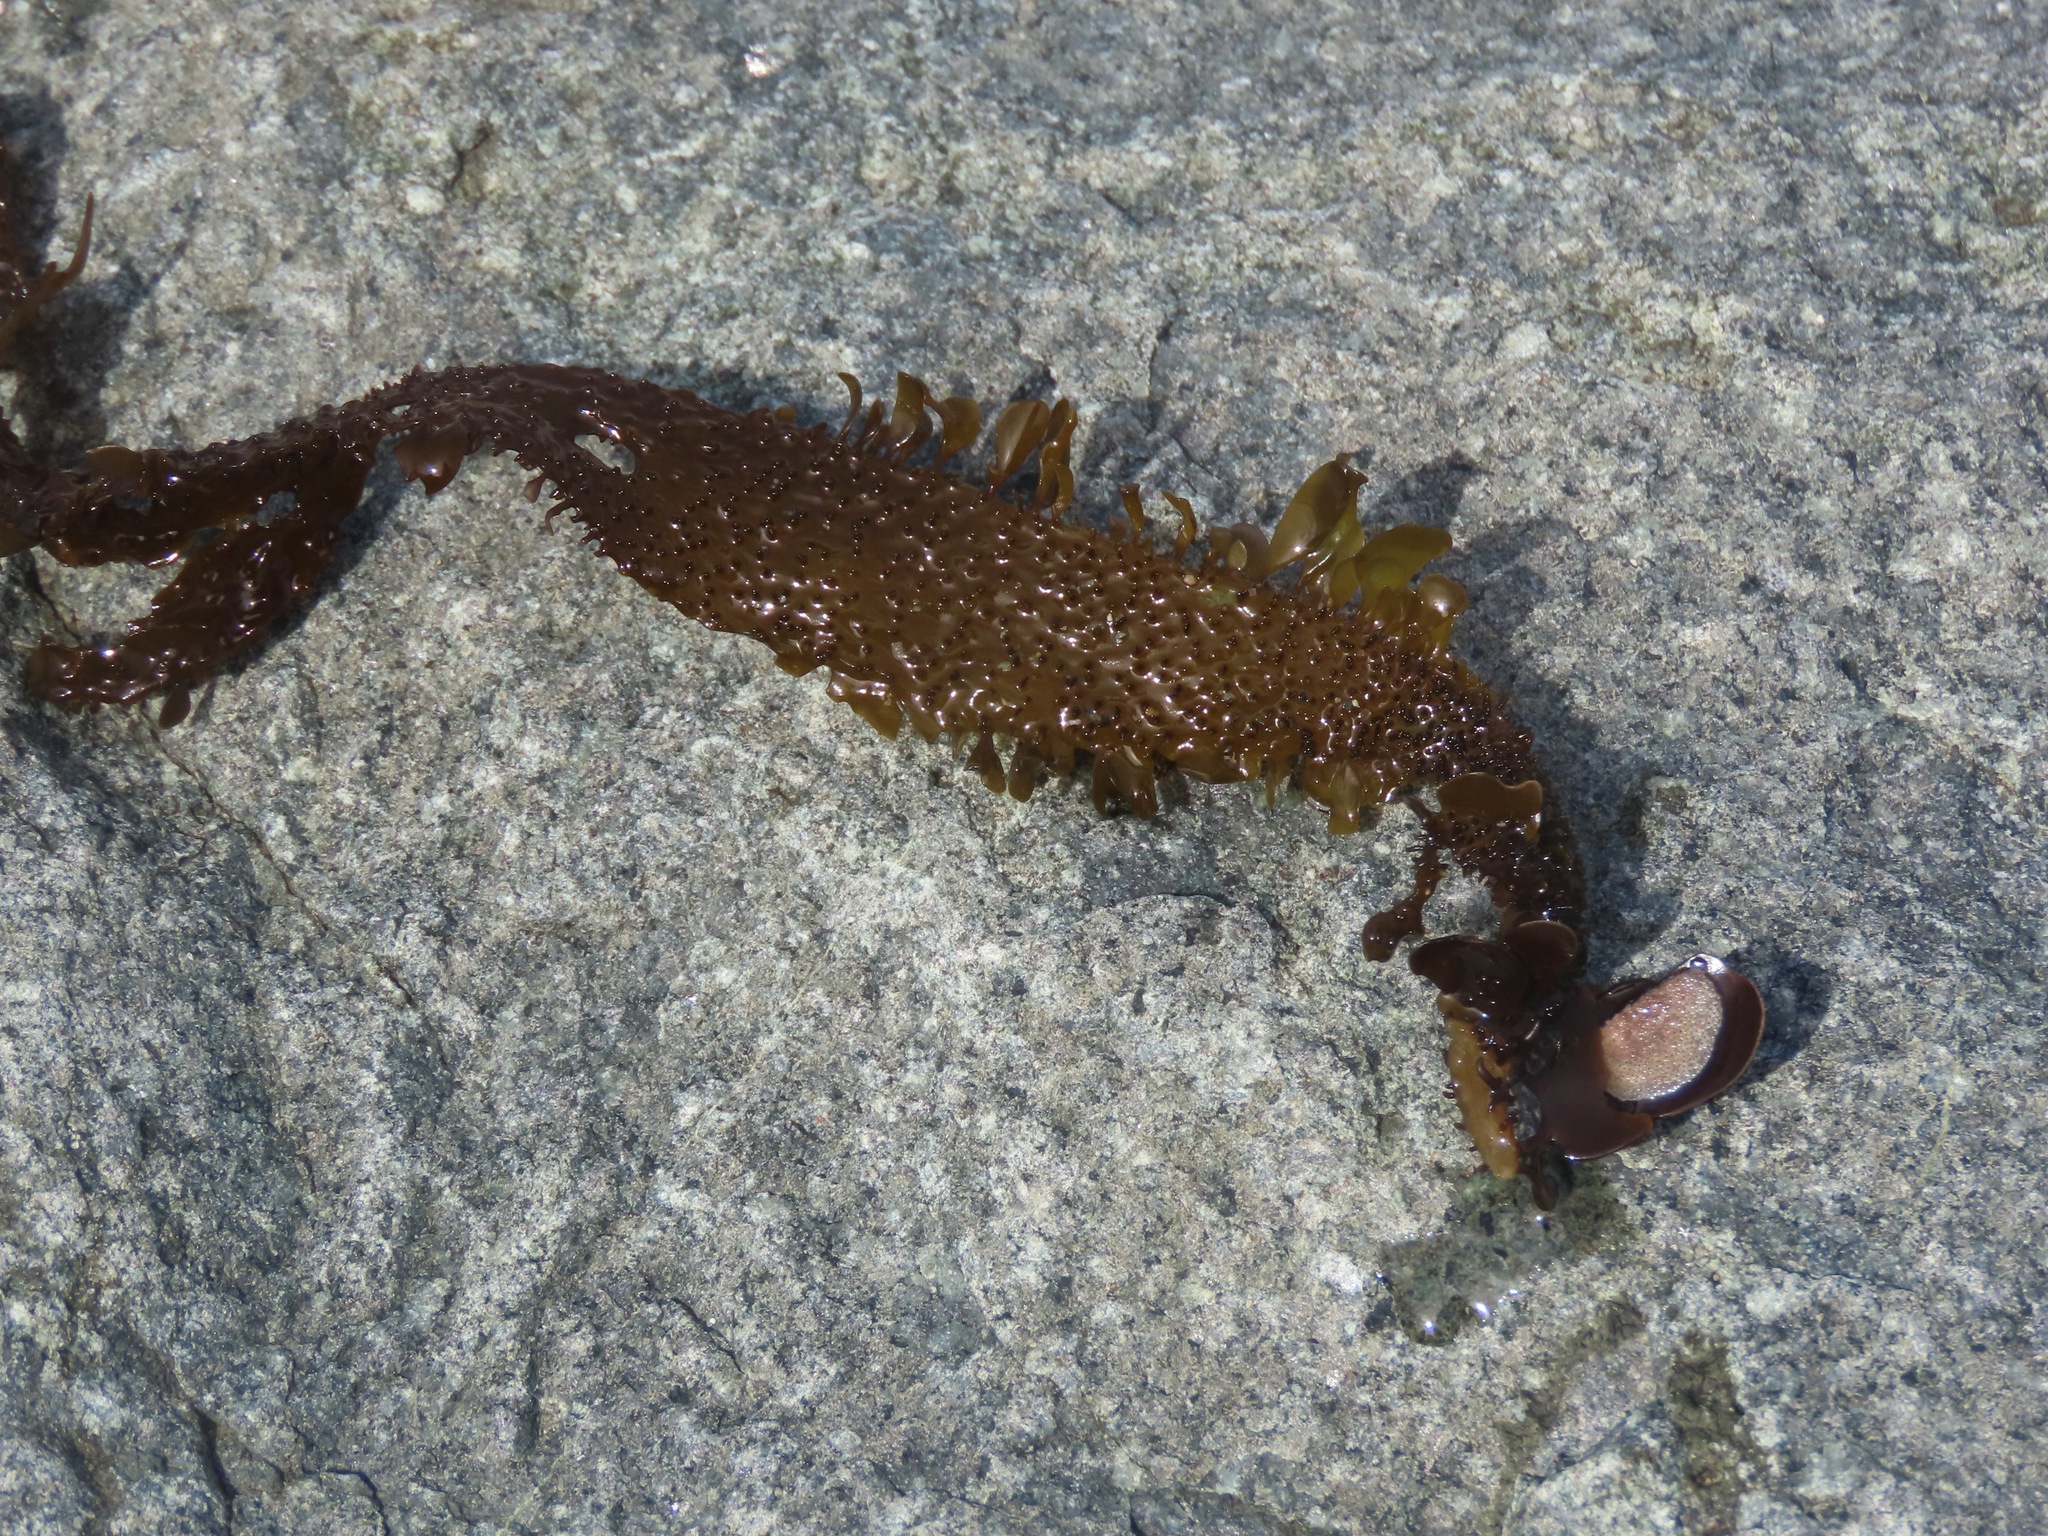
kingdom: Chromista
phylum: Ochrophyta
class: Phaeophyceae
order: Laminariales
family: Lessoniaceae
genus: Egregia
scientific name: Egregia menziesii
